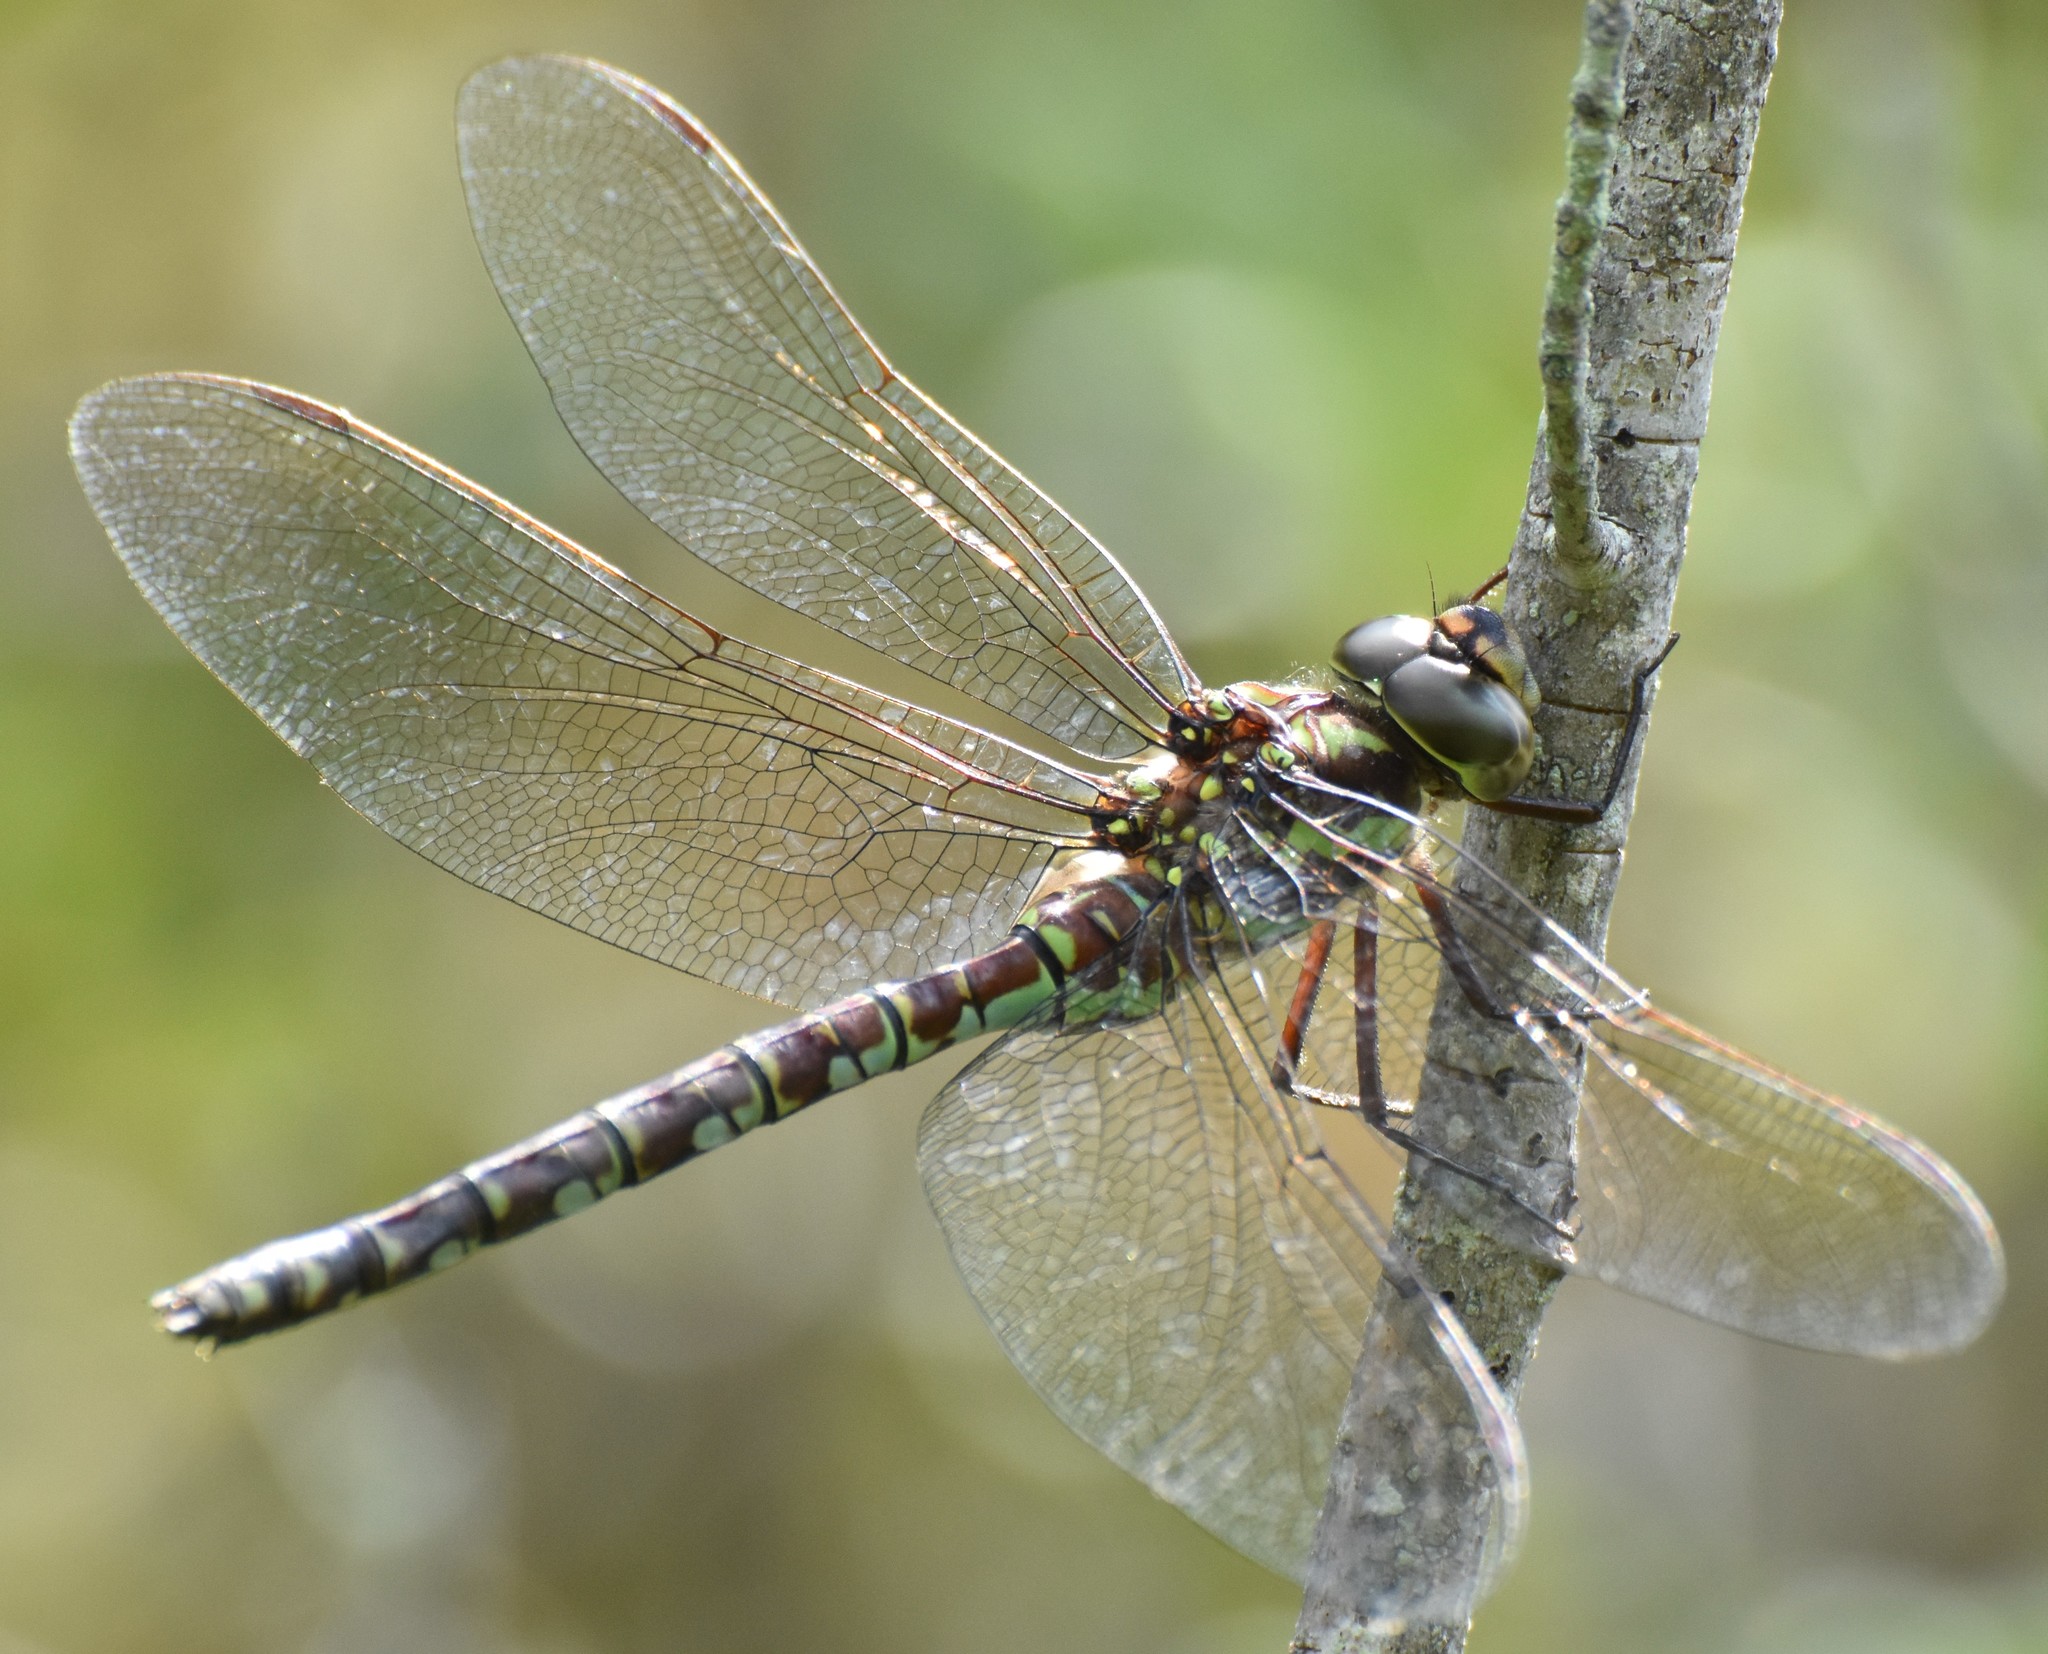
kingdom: Animalia
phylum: Arthropoda
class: Insecta
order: Odonata
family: Aeshnidae
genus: Aeshna
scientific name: Aeshna verticalis
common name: Green-striped darner
